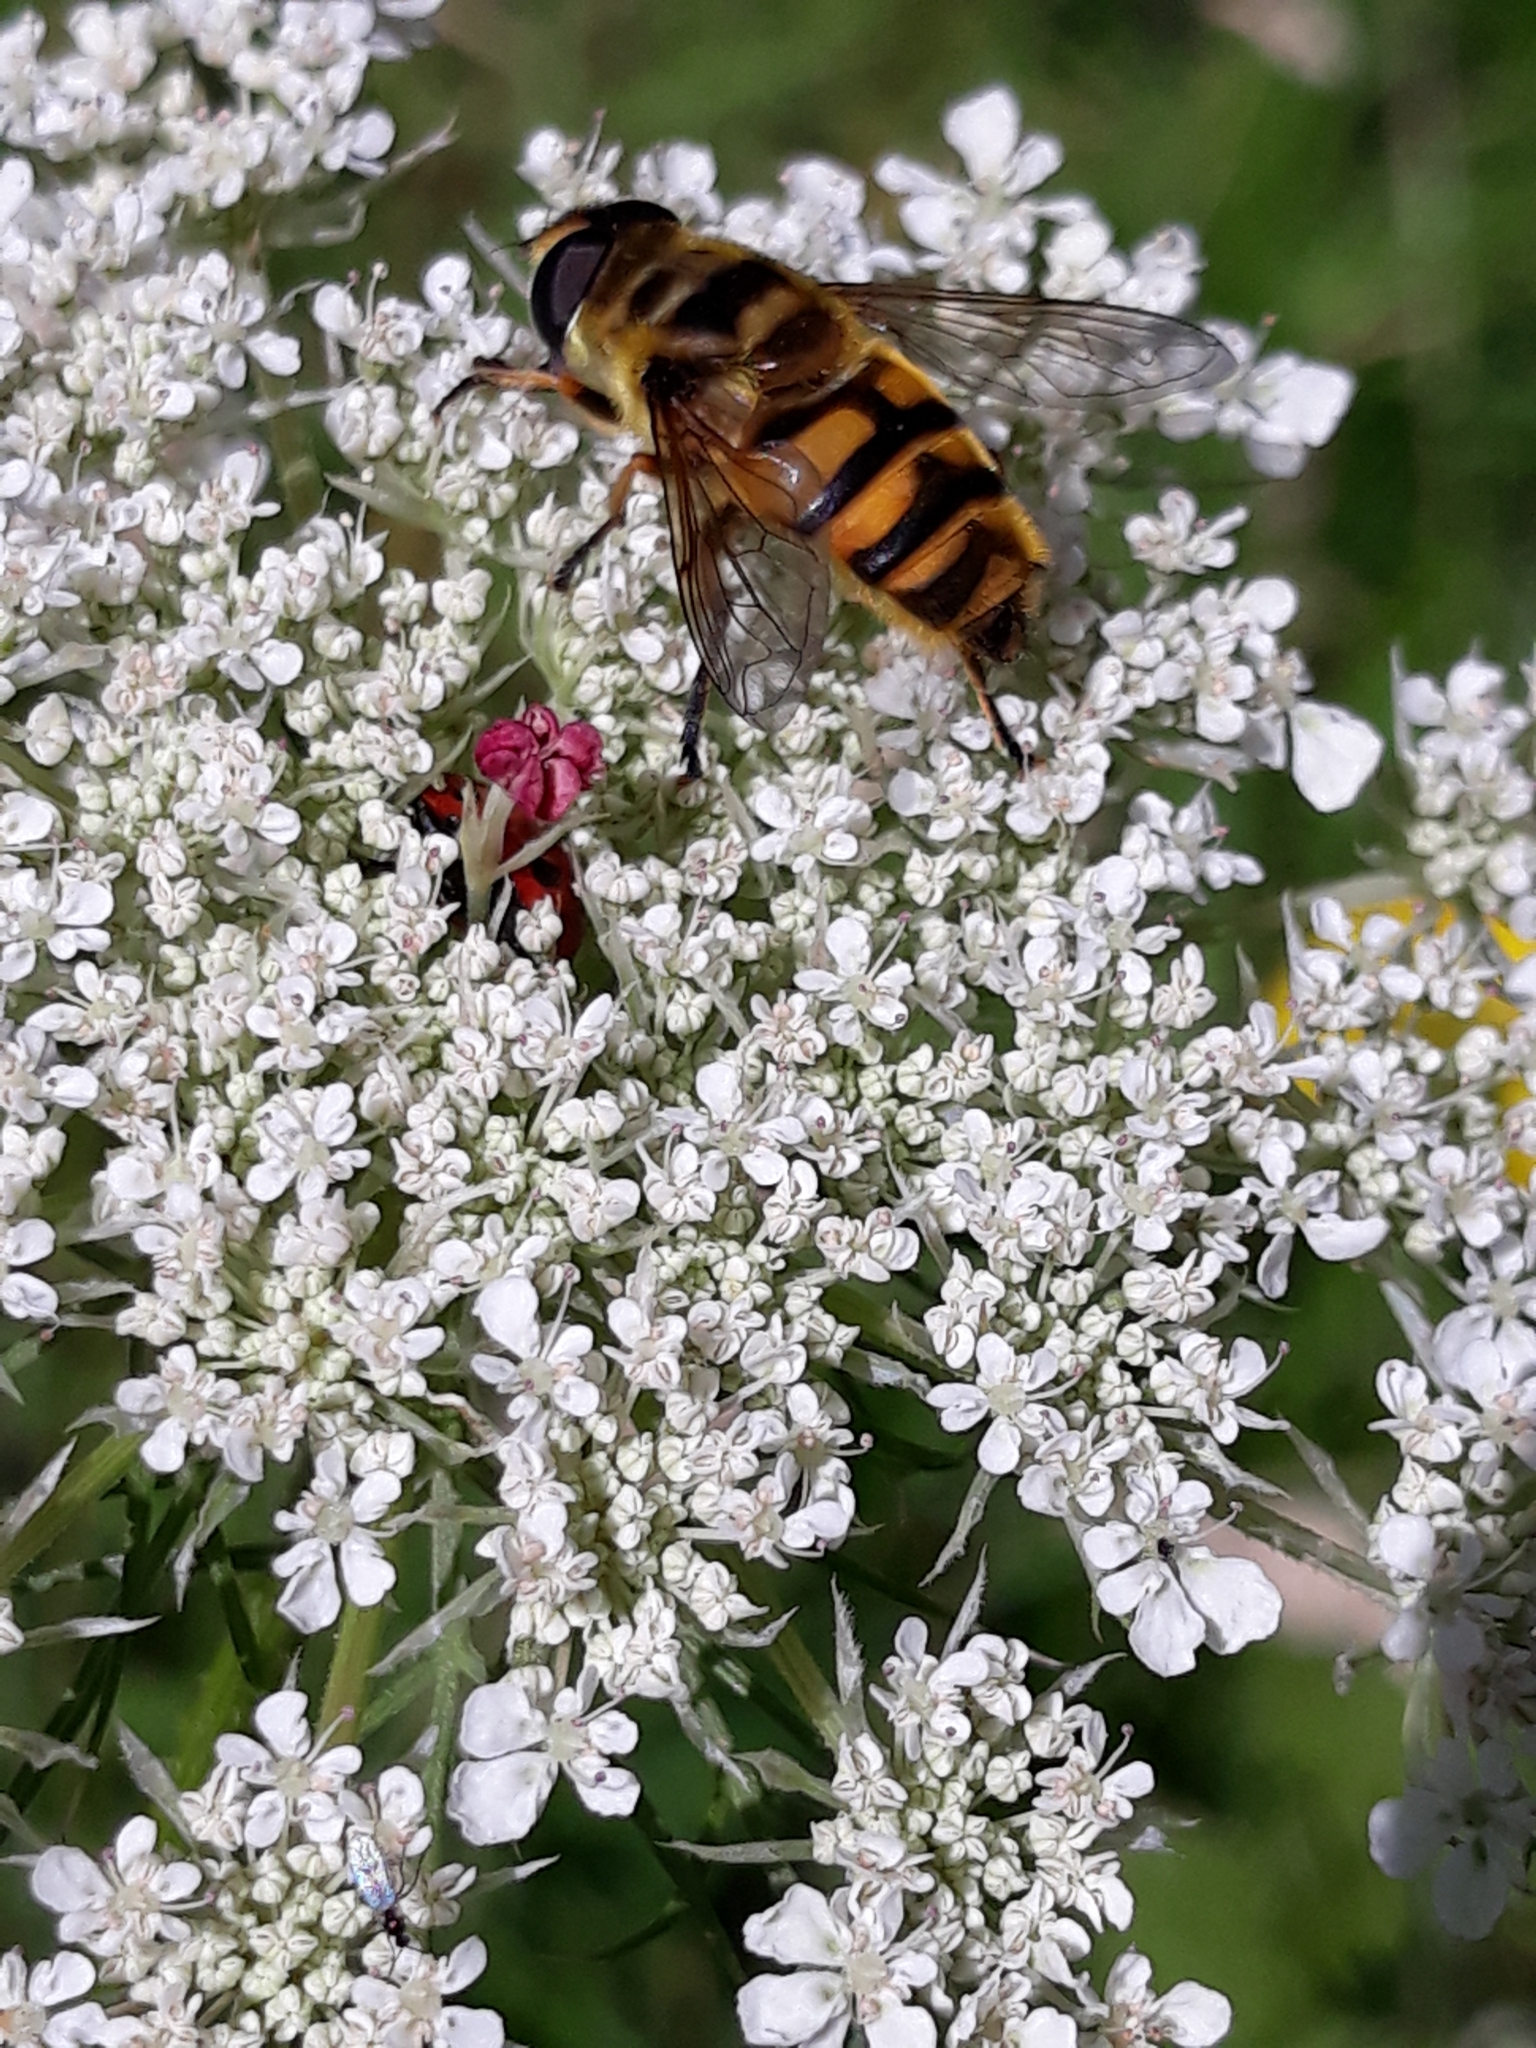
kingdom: Animalia
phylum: Arthropoda
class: Insecta
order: Diptera
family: Syrphidae
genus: Myathropa
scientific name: Myathropa florea
